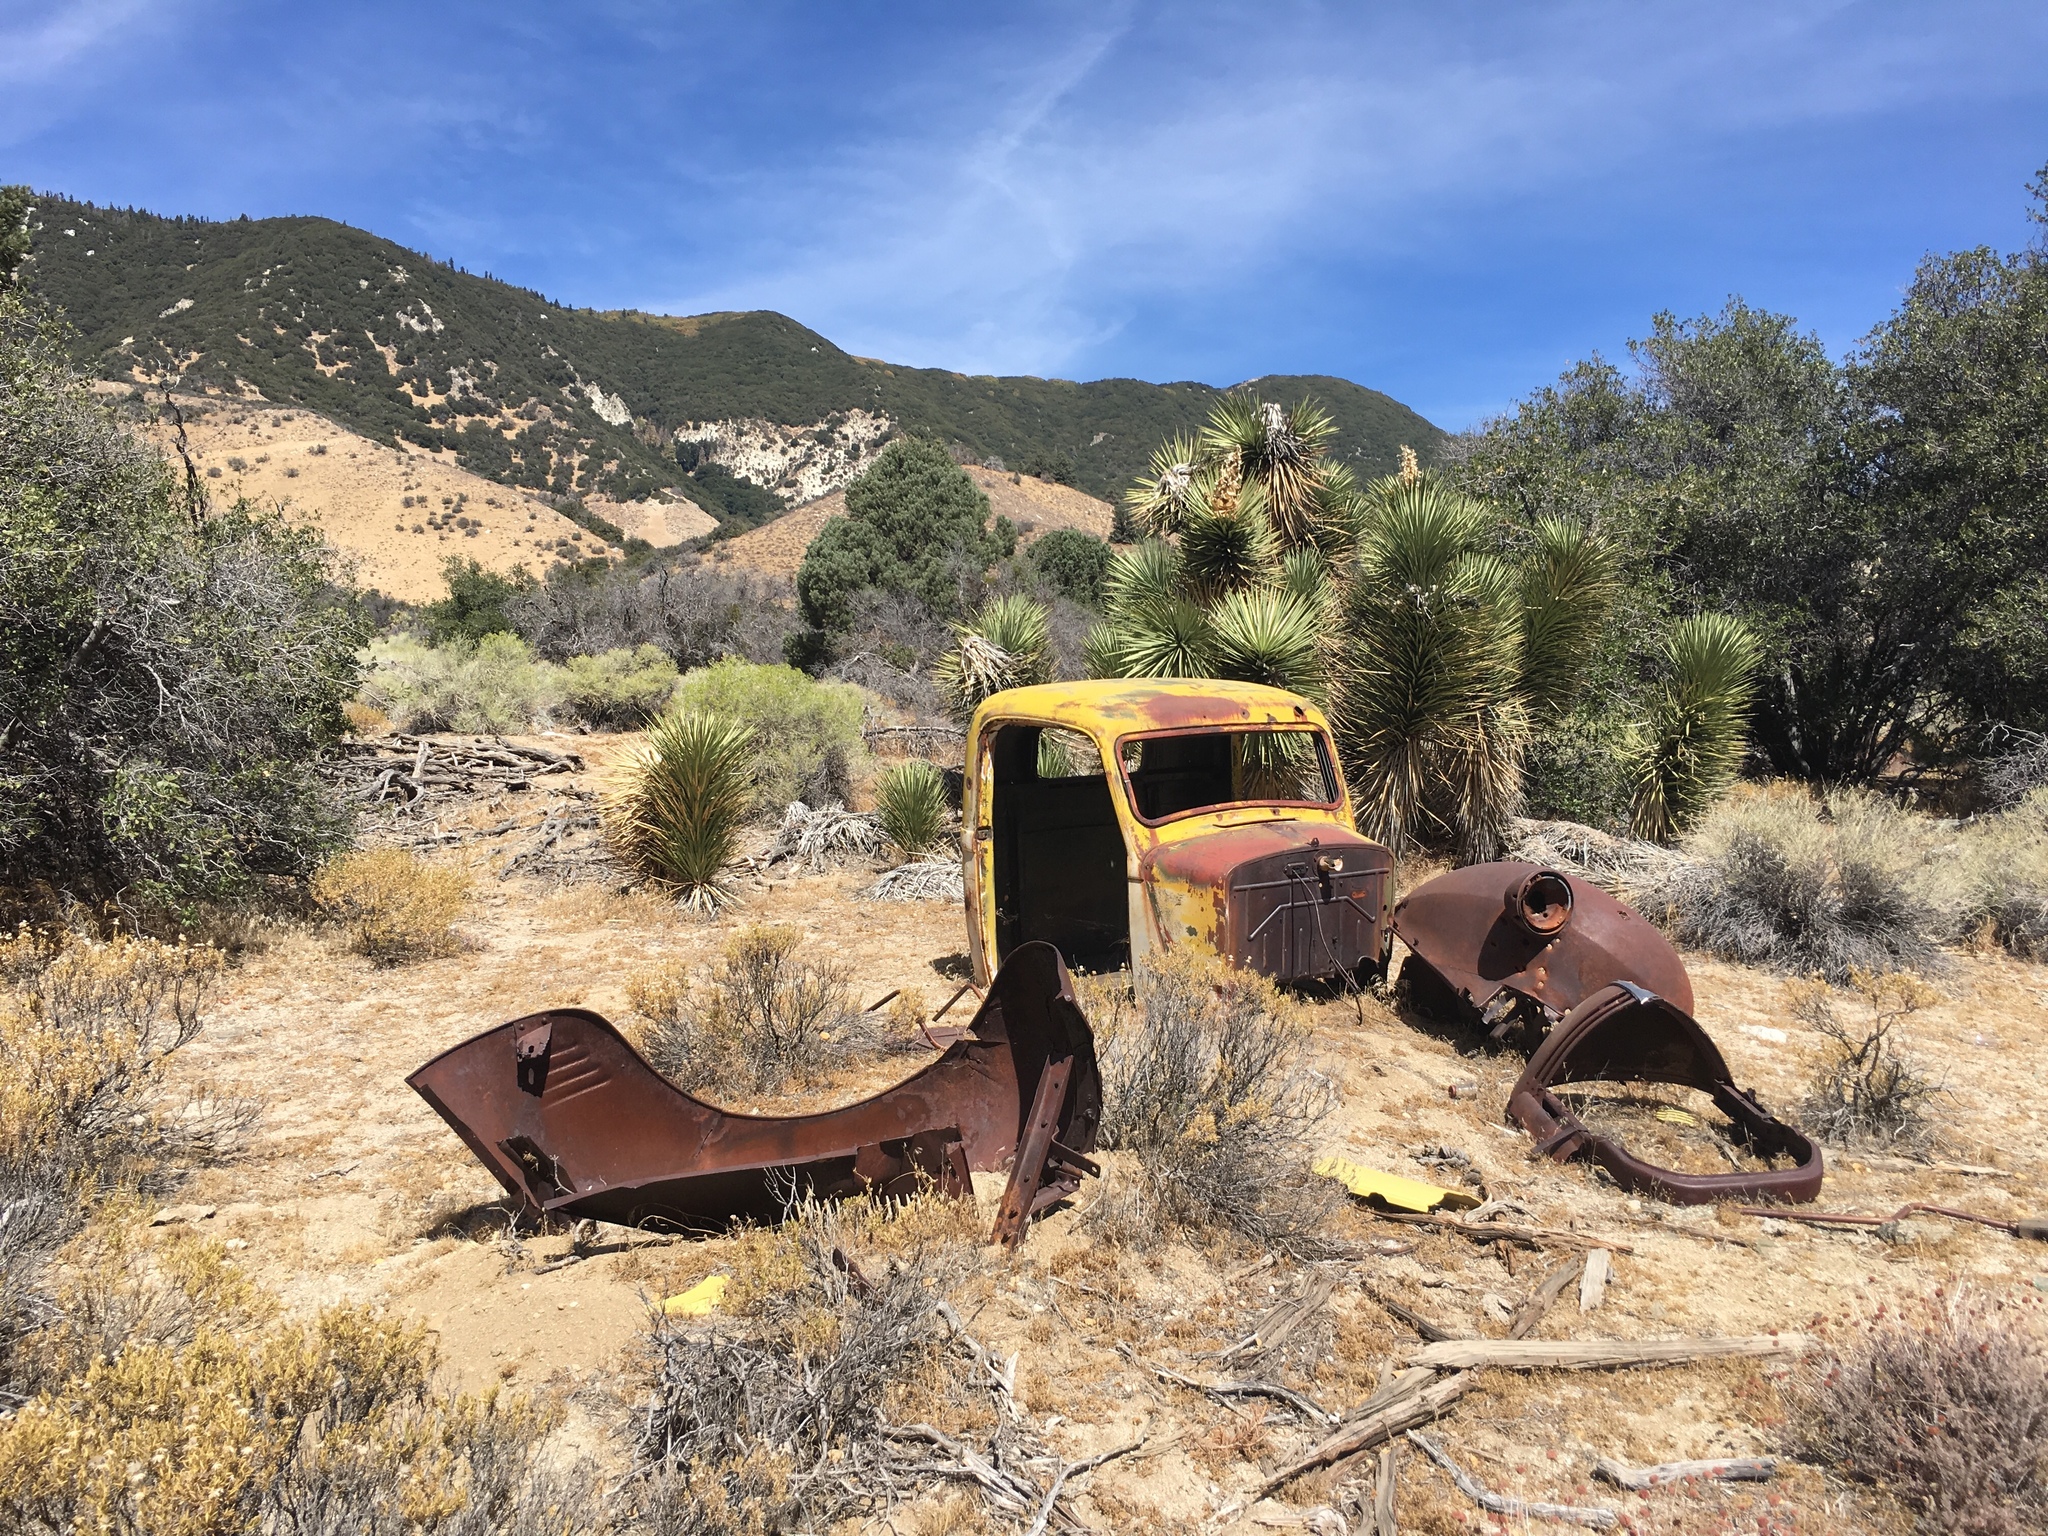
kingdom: Plantae
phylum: Tracheophyta
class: Liliopsida
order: Asparagales
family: Asparagaceae
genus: Yucca
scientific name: Yucca brevifolia
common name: Joshua tree
